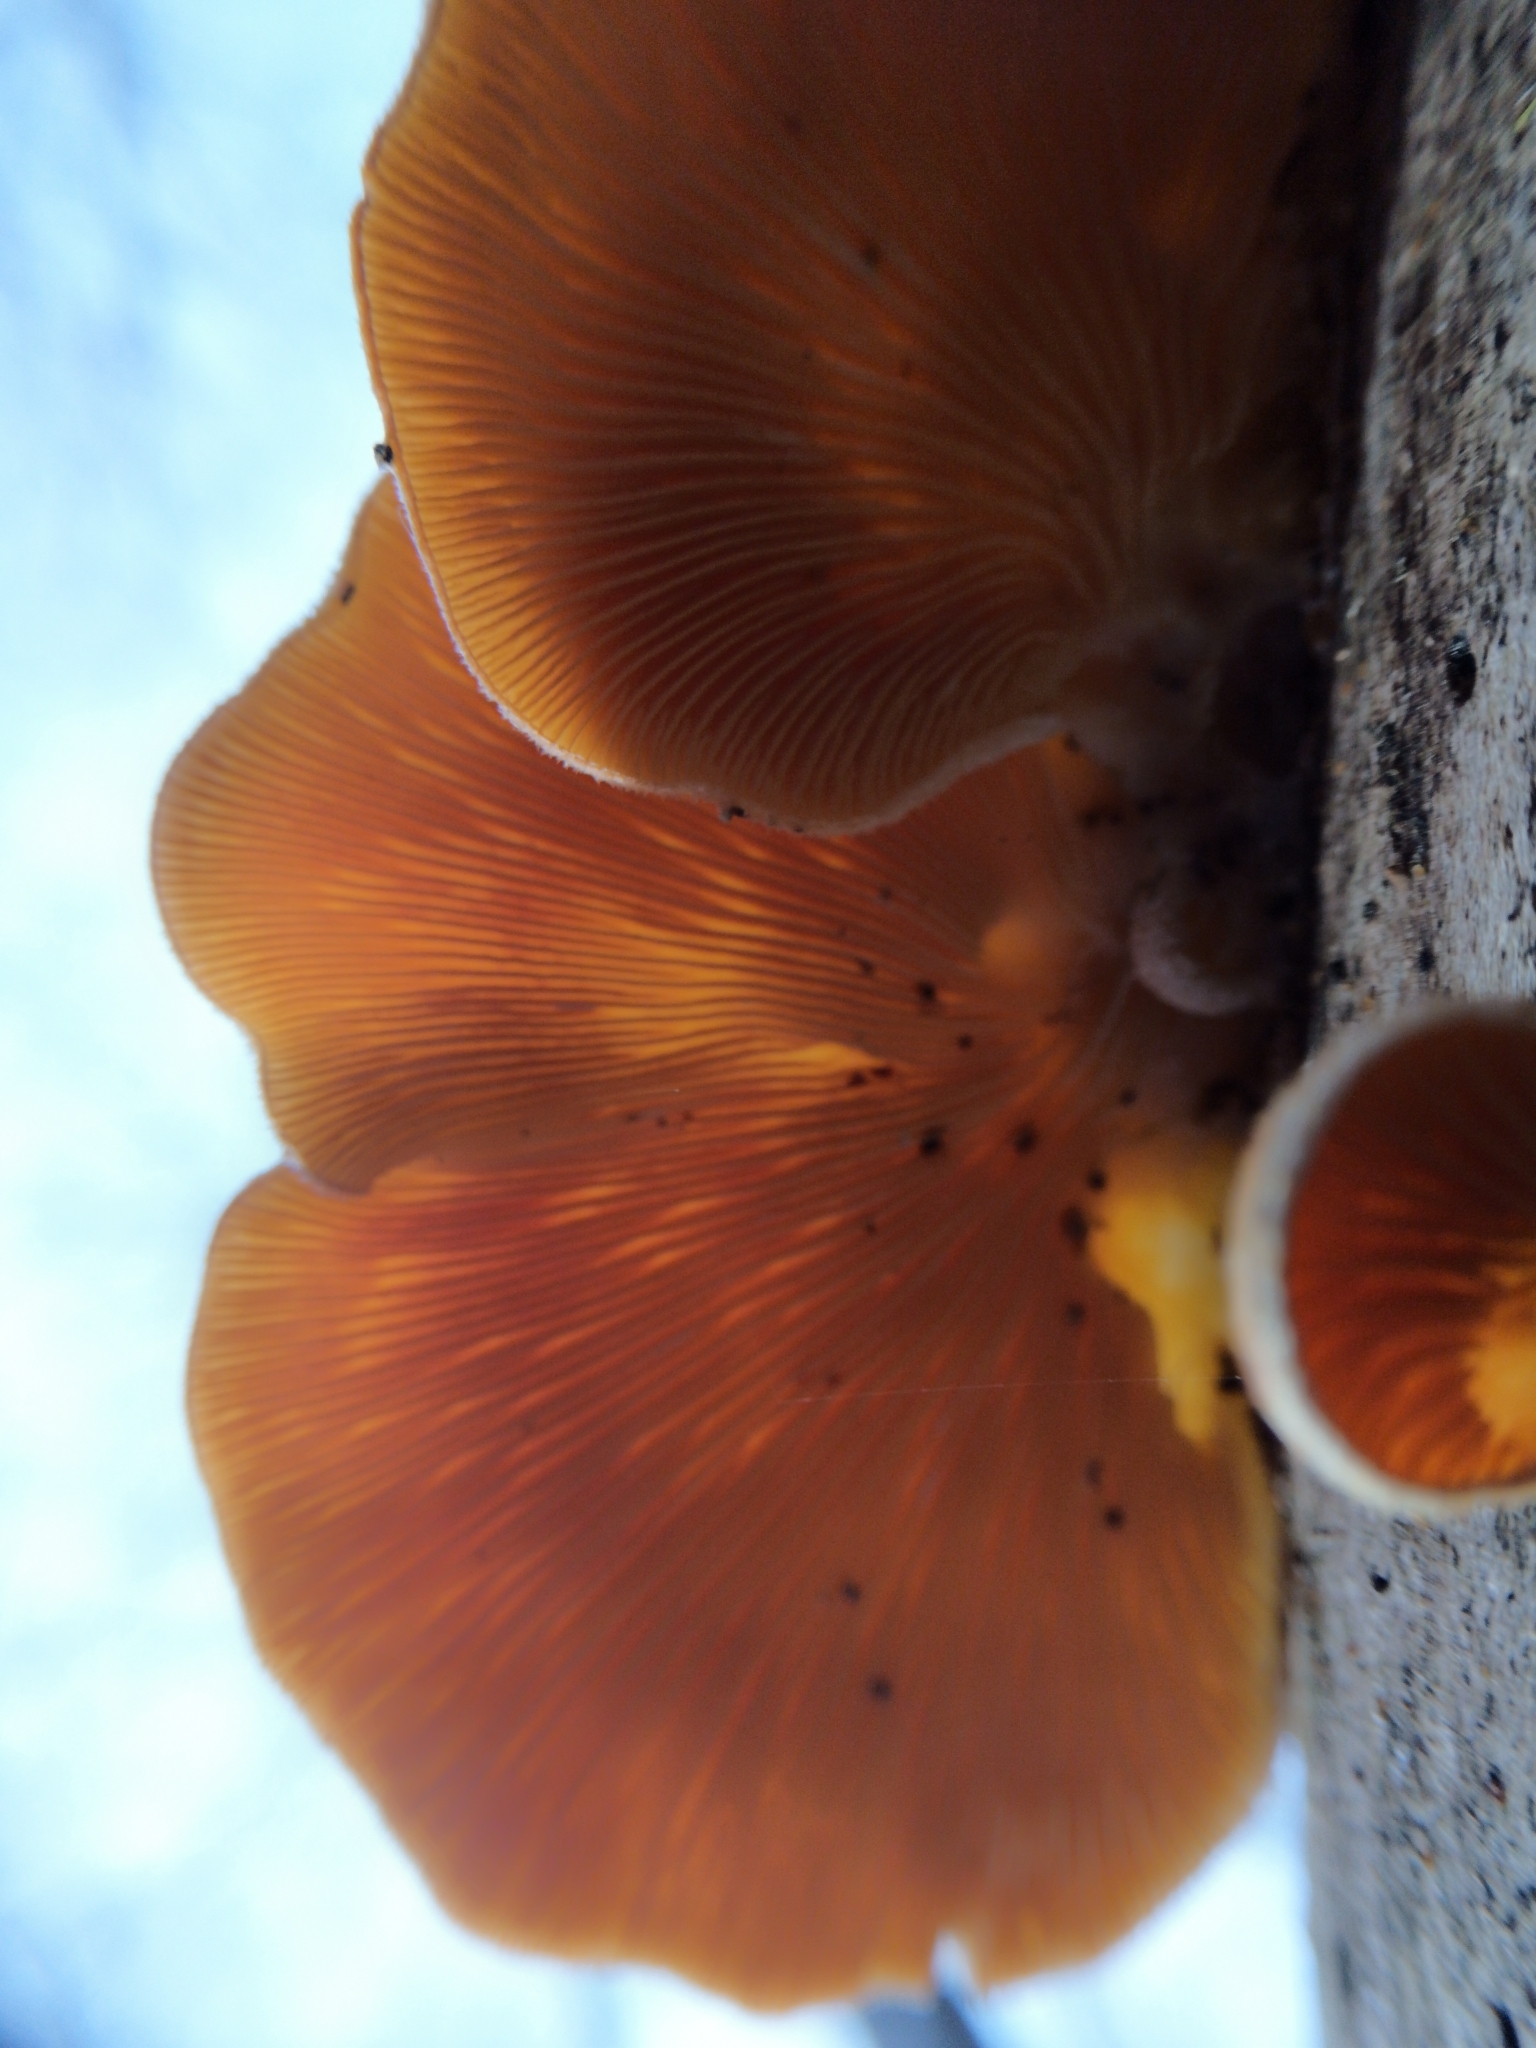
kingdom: Fungi
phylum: Basidiomycota
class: Agaricomycetes
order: Agaricales
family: Phyllotopsidaceae
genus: Phyllotopsis
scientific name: Phyllotopsis nidulans
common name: Orange mock oyster
